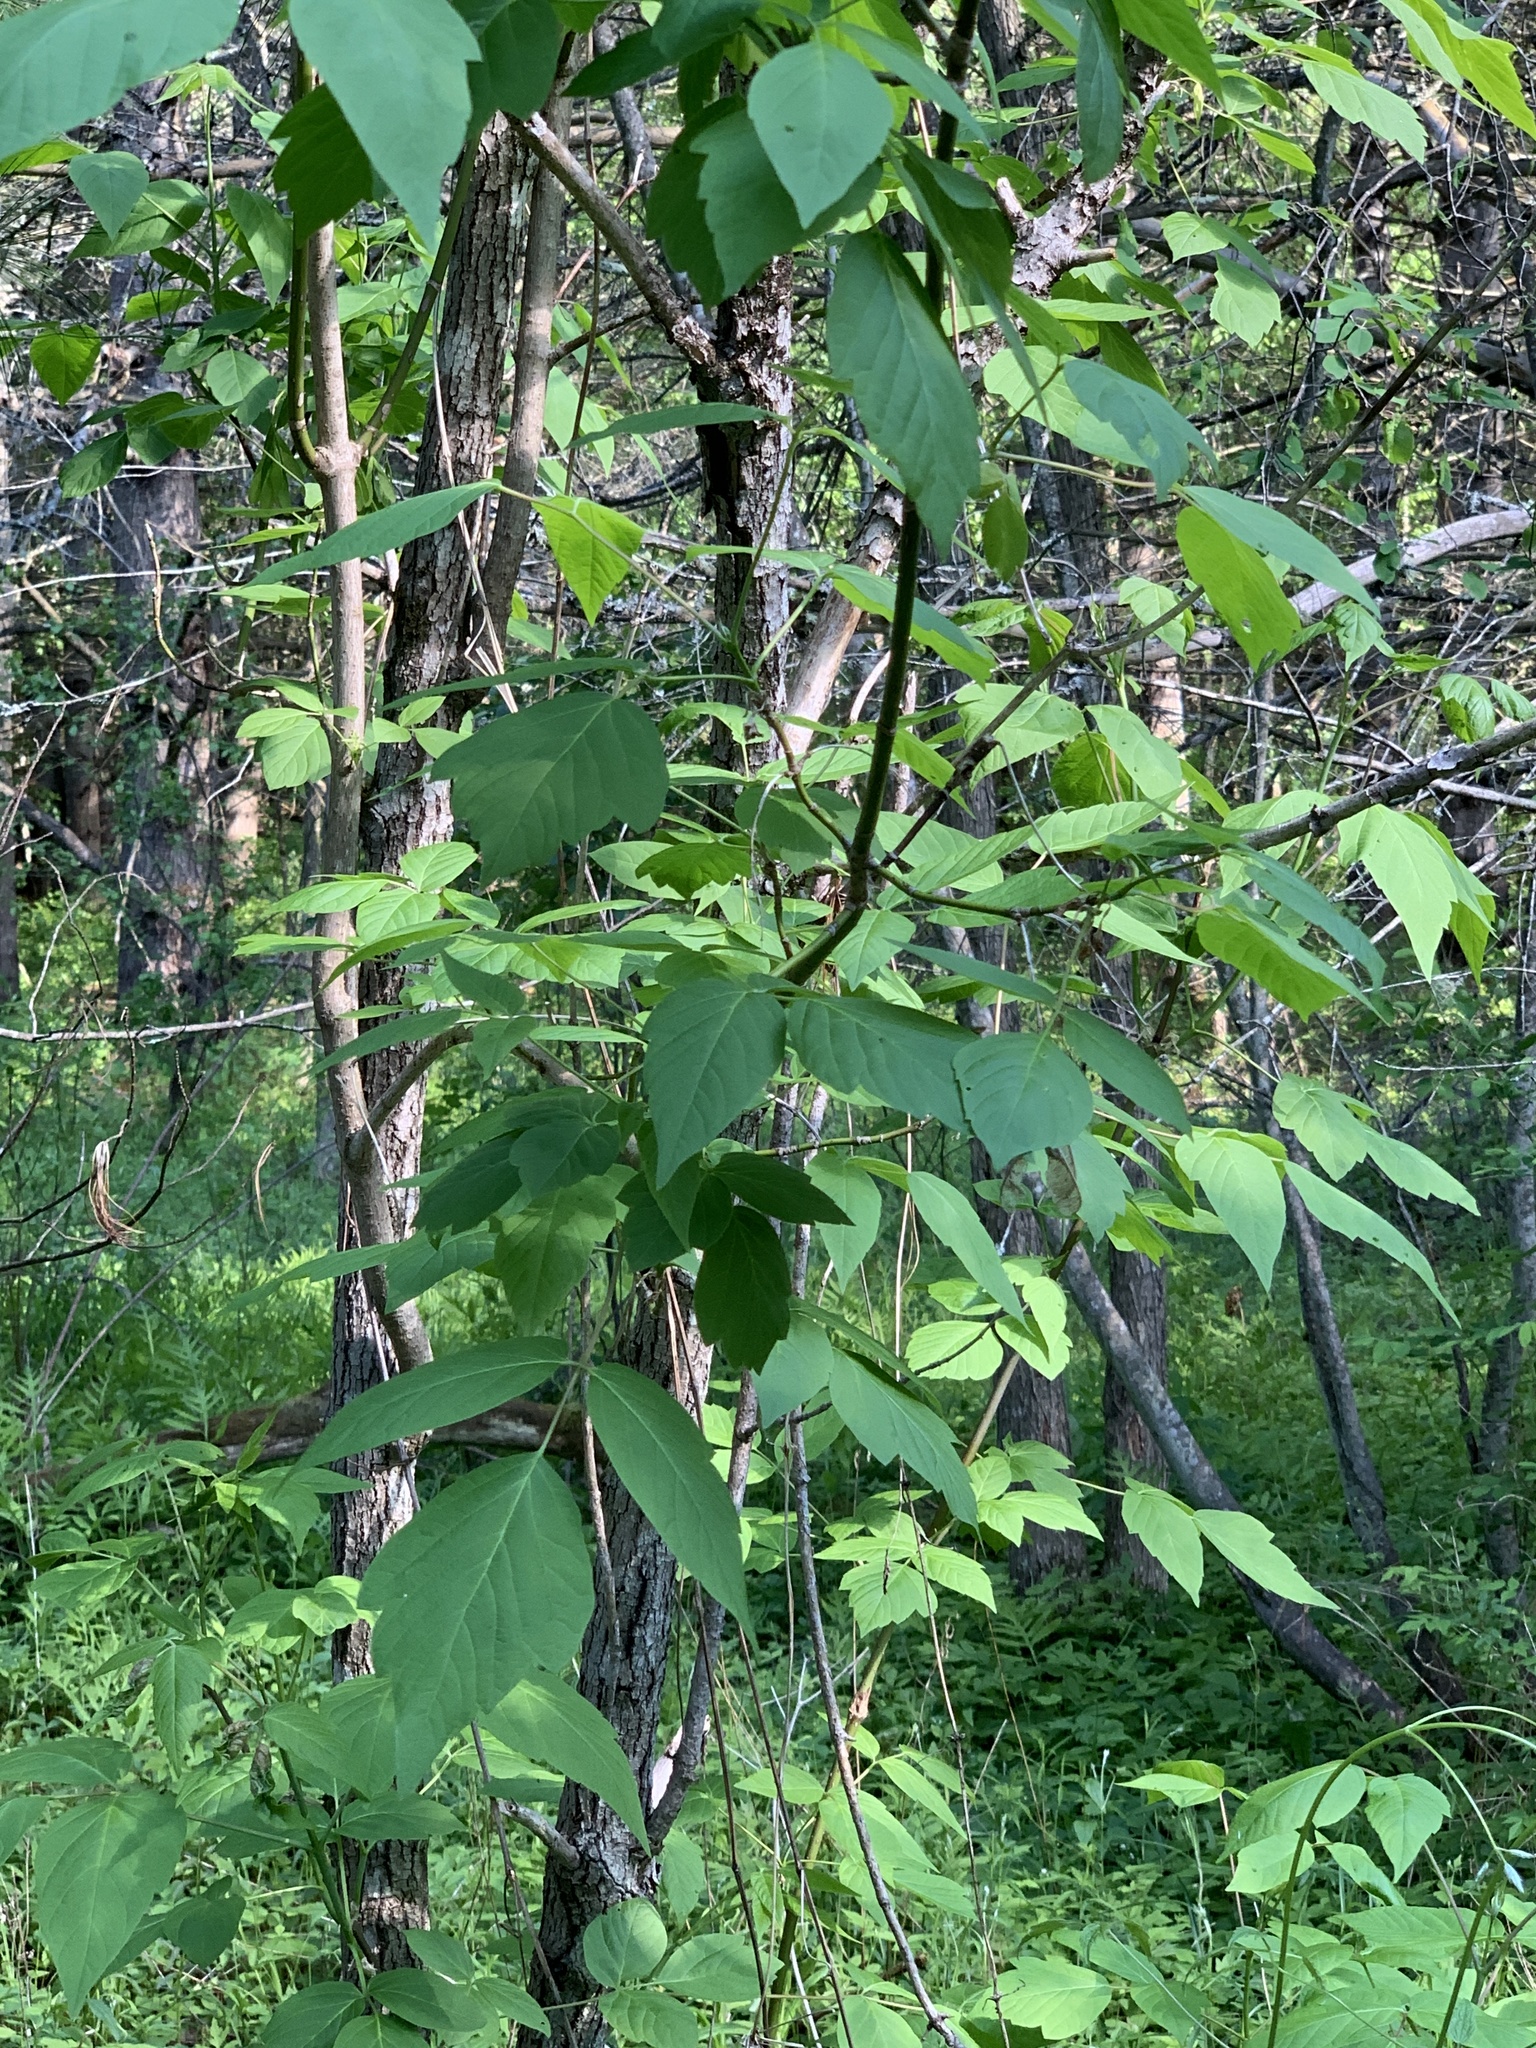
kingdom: Plantae
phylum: Tracheophyta
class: Magnoliopsida
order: Sapindales
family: Sapindaceae
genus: Acer
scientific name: Acer negundo
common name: Ashleaf maple
